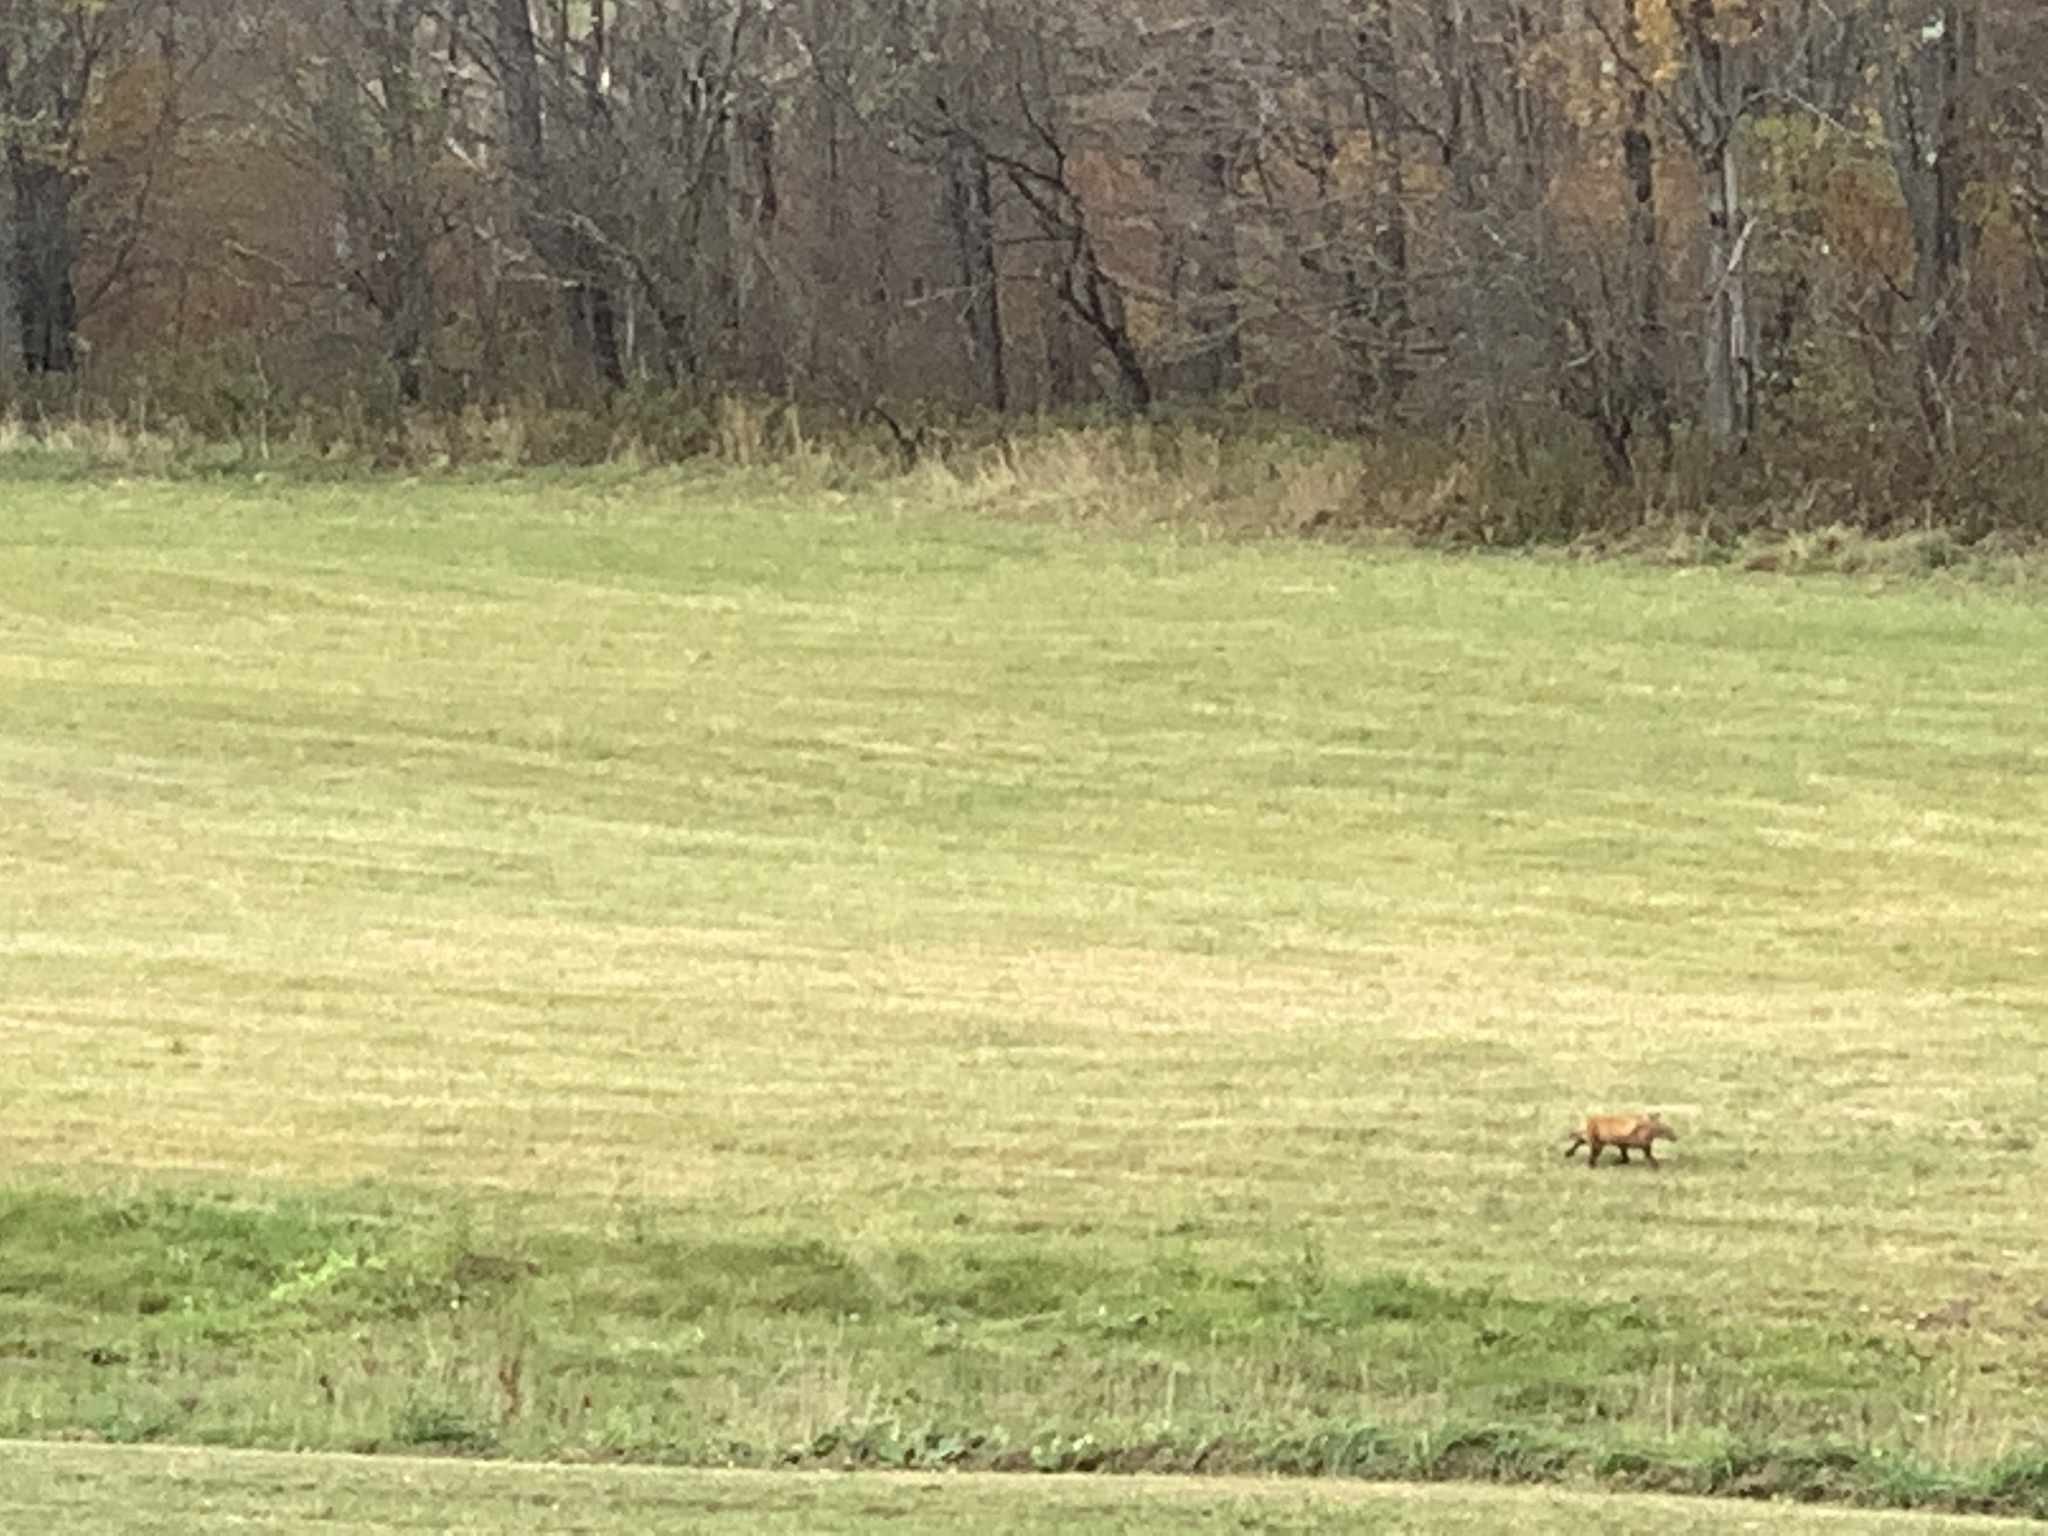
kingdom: Animalia
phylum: Chordata
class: Mammalia
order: Carnivora
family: Canidae
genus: Vulpes
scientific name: Vulpes vulpes
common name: Red fox
